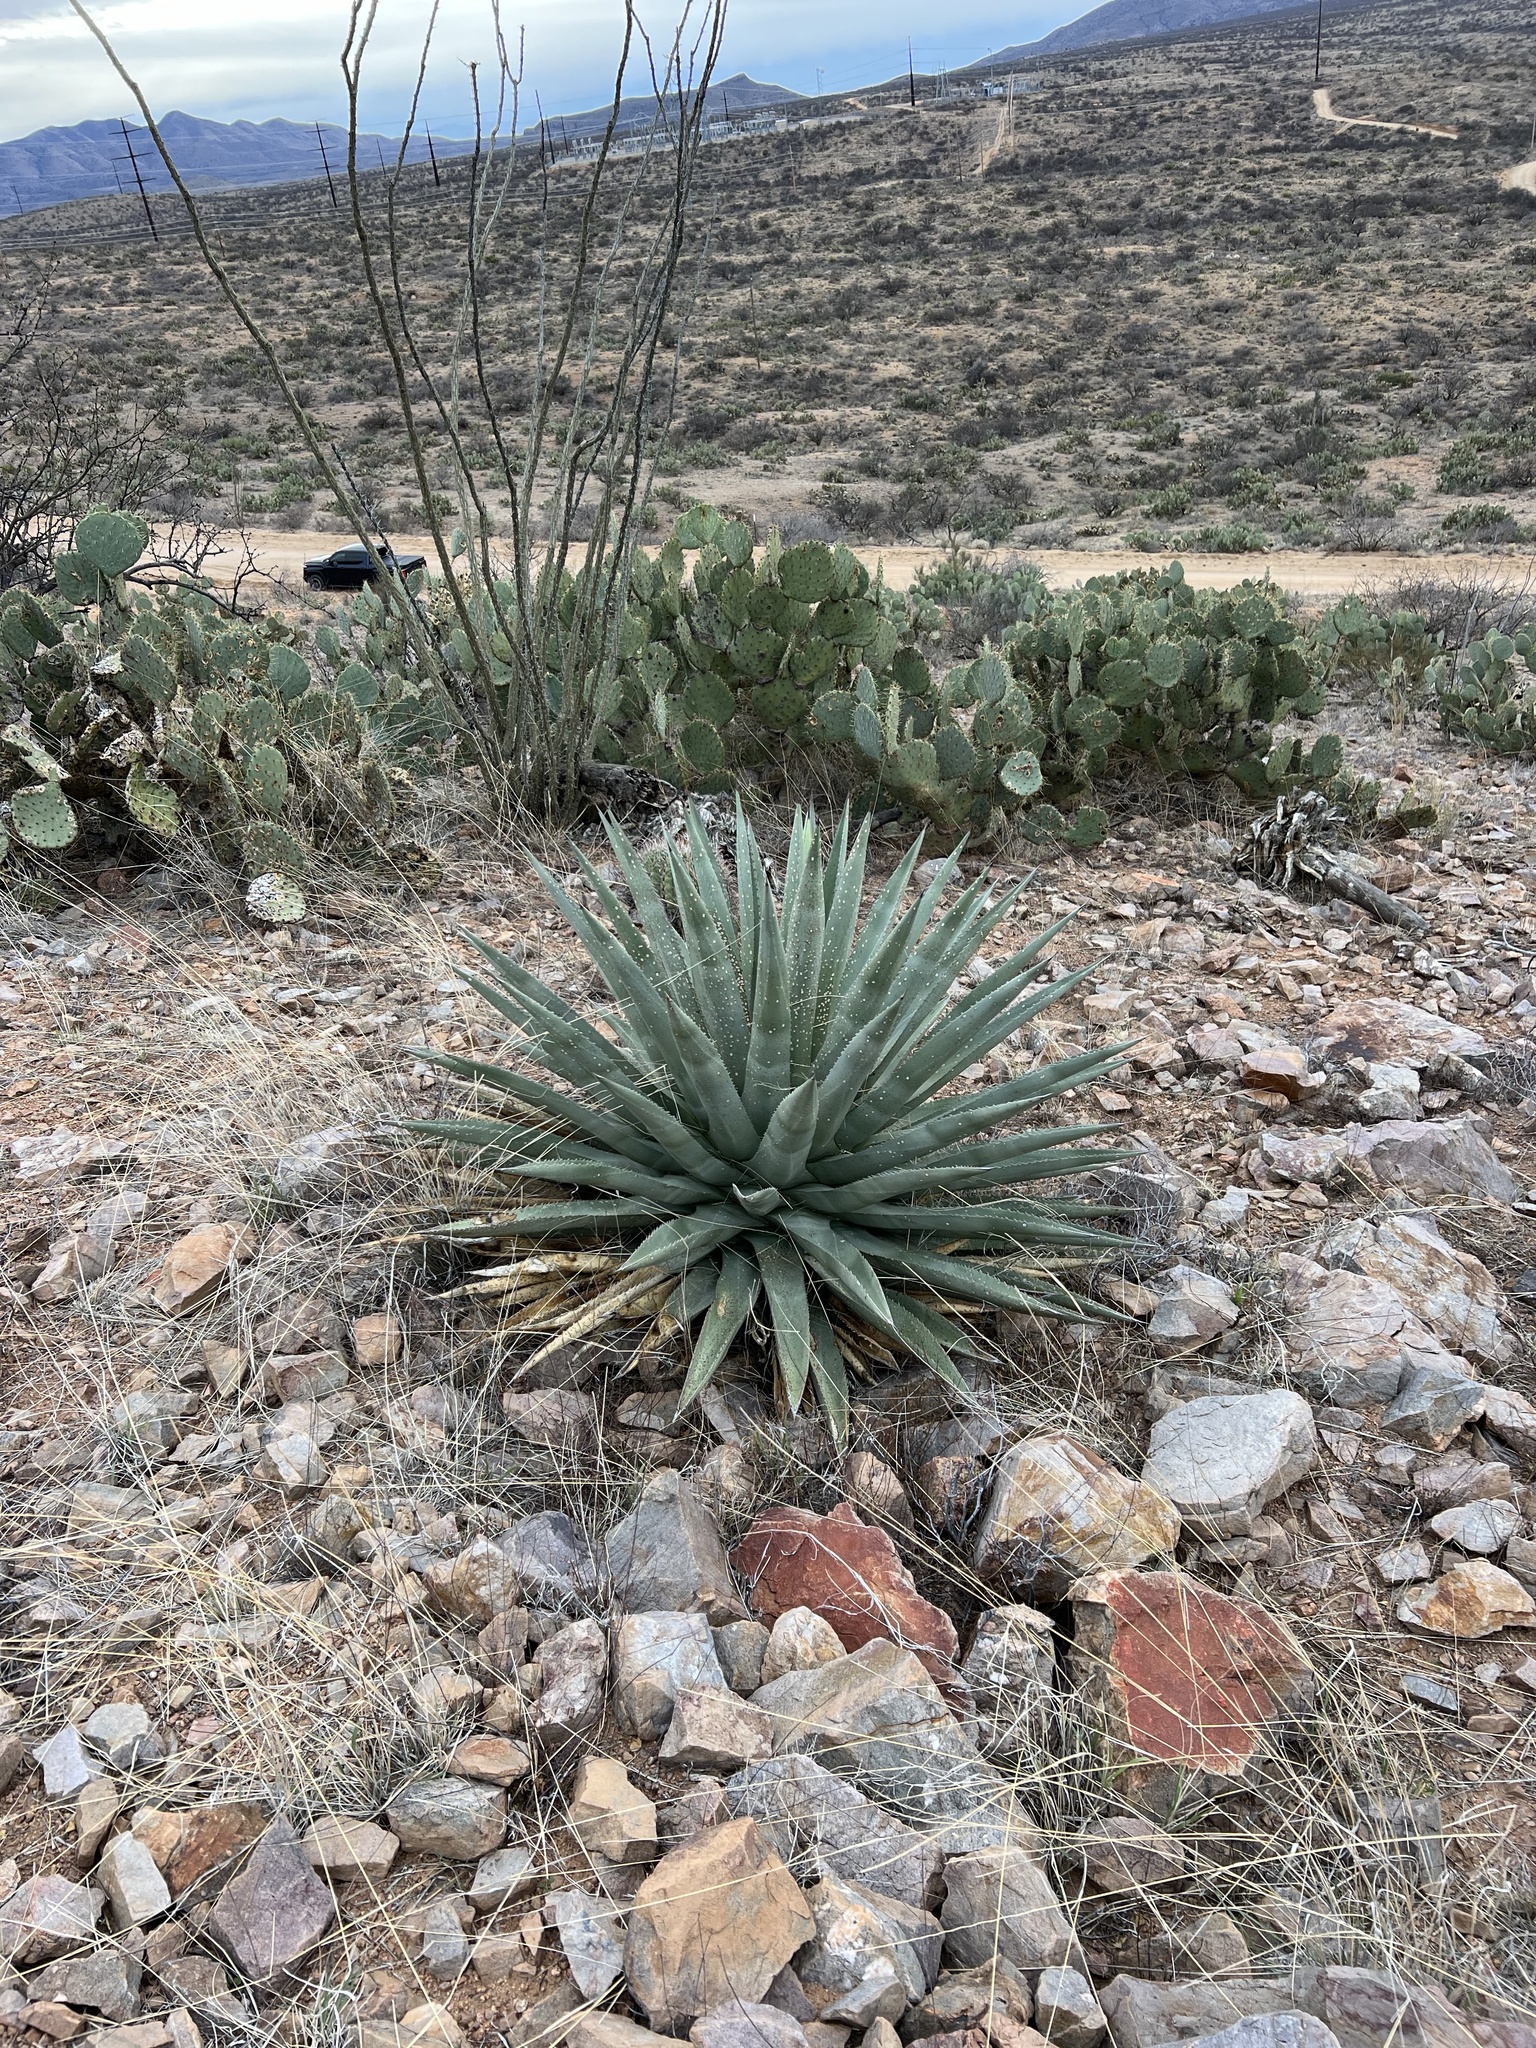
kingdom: Plantae
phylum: Tracheophyta
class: Liliopsida
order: Asparagales
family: Asparagaceae
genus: Agave
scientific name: Agave palmeri
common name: Palmer agave
